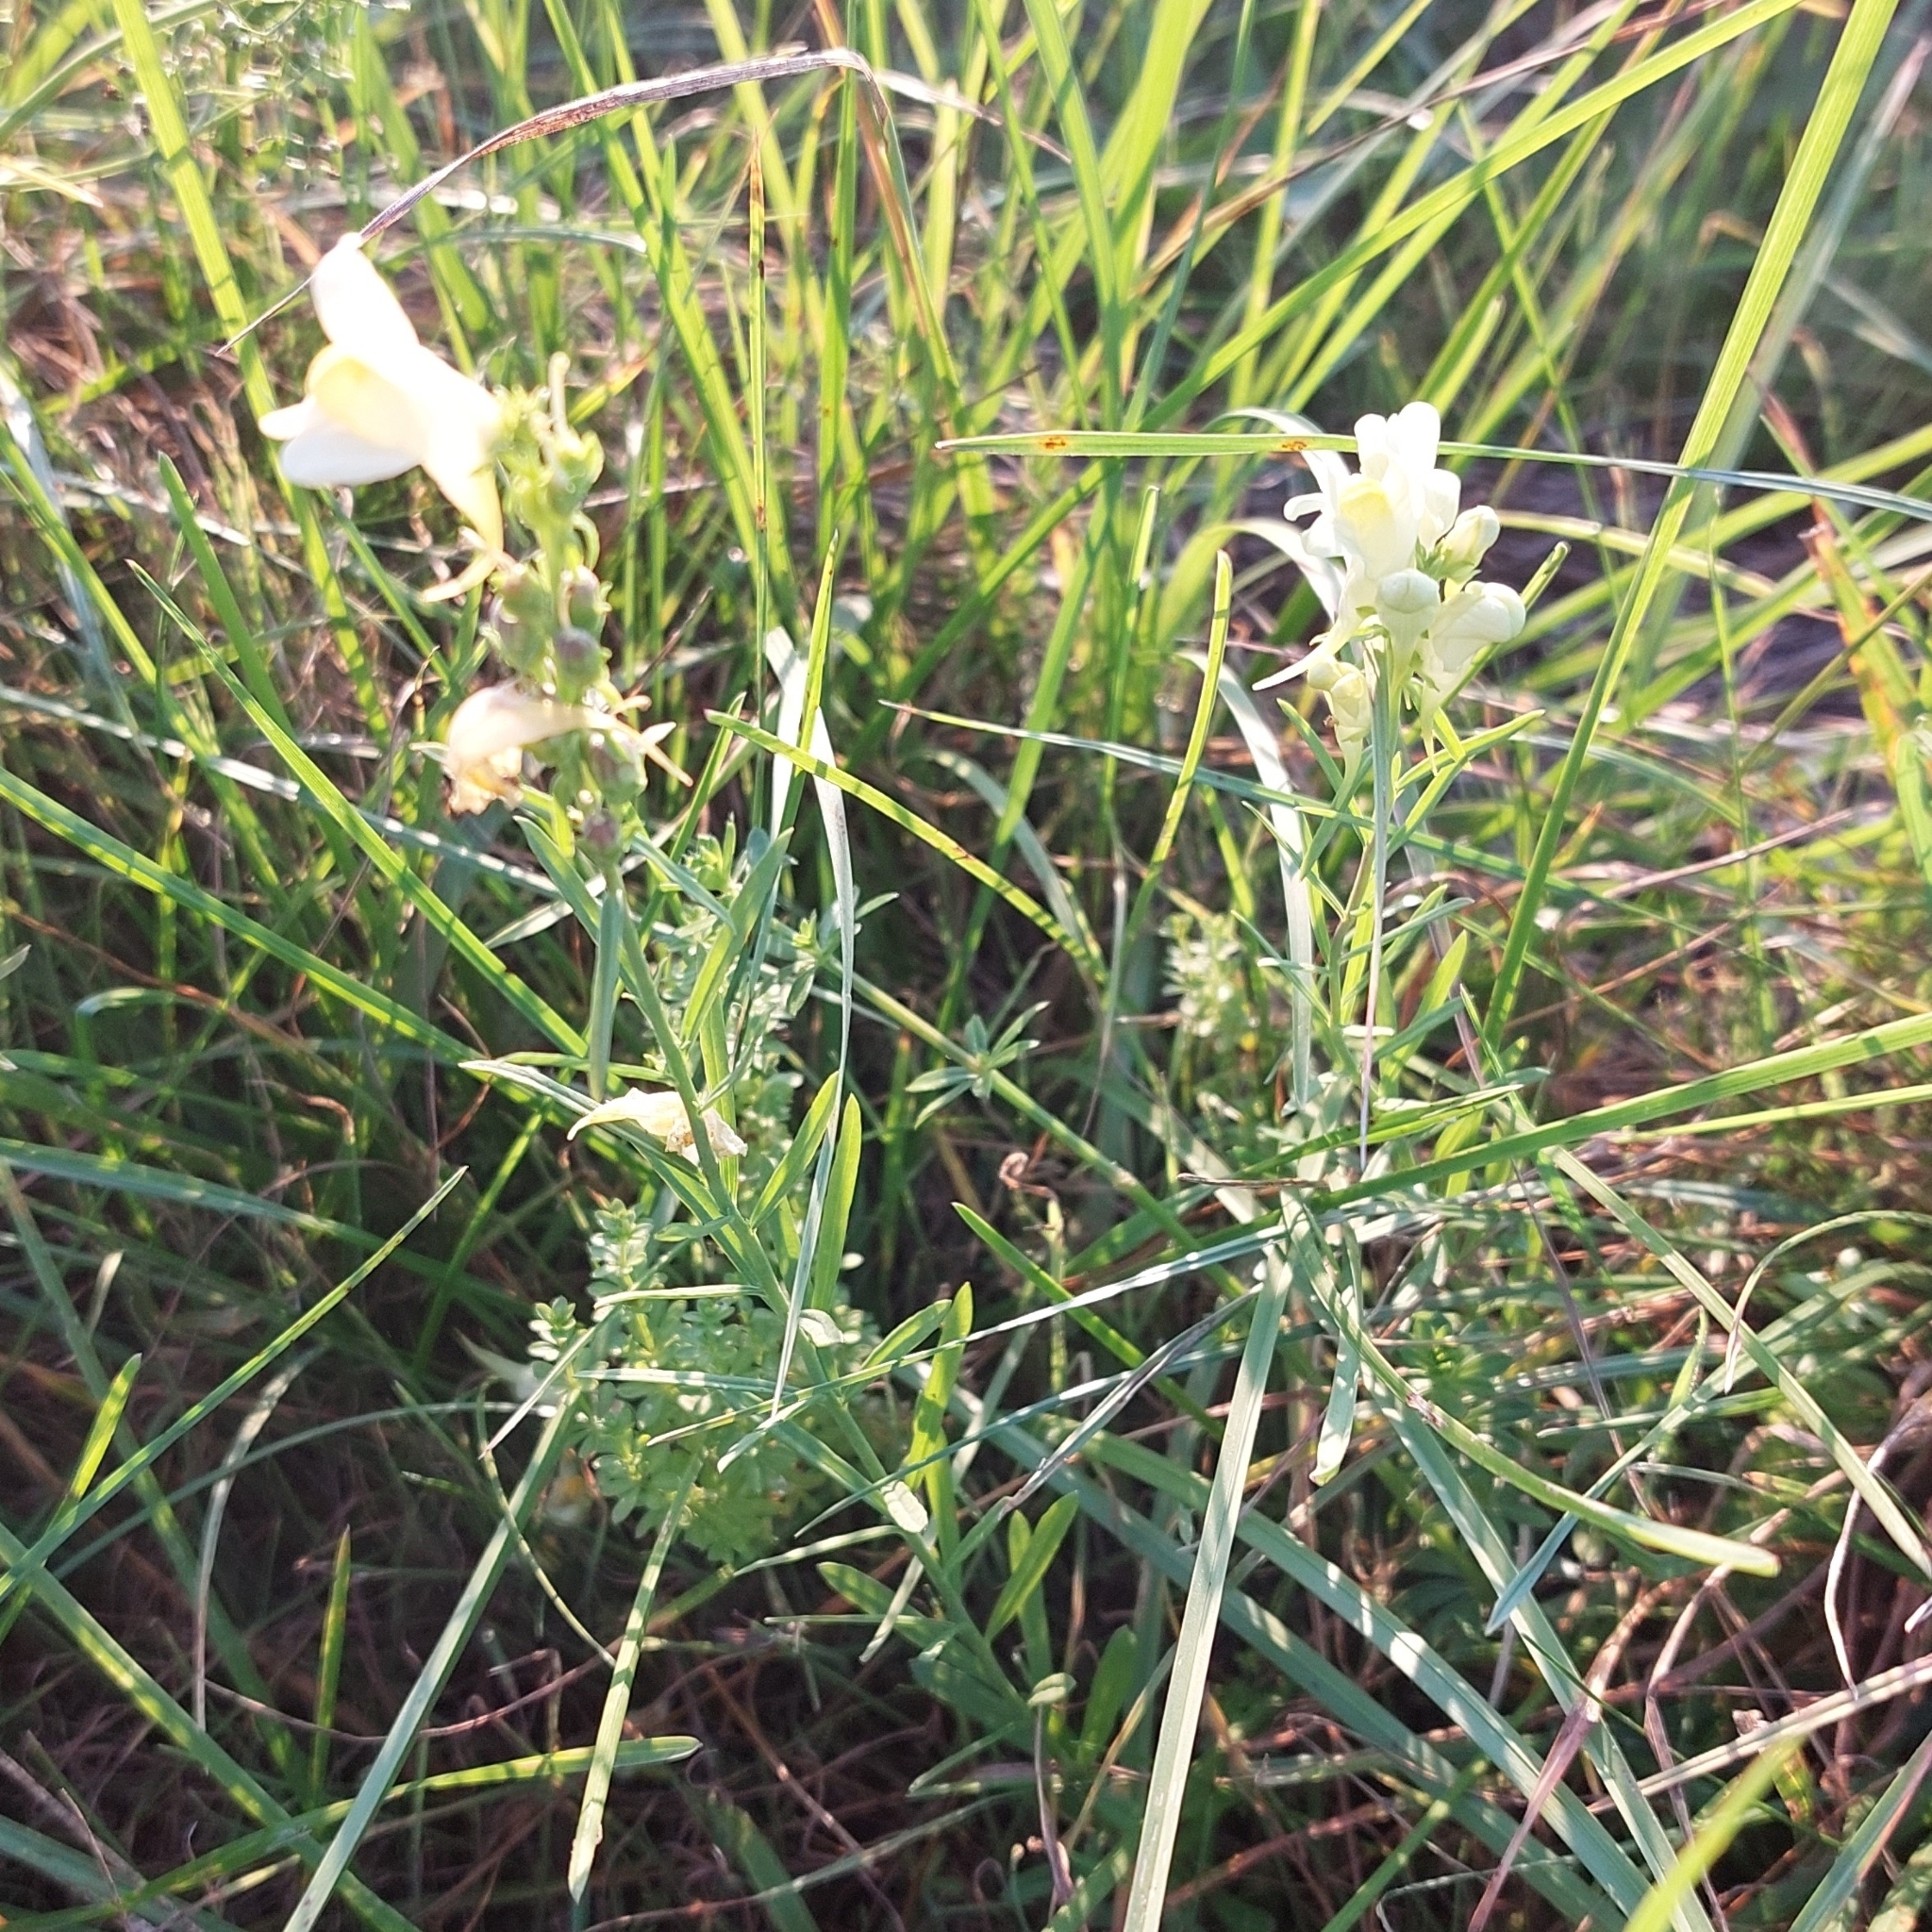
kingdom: Plantae
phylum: Tracheophyta
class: Magnoliopsida
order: Lamiales
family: Plantaginaceae
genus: Linaria
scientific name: Linaria vulgaris
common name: Butter and eggs
